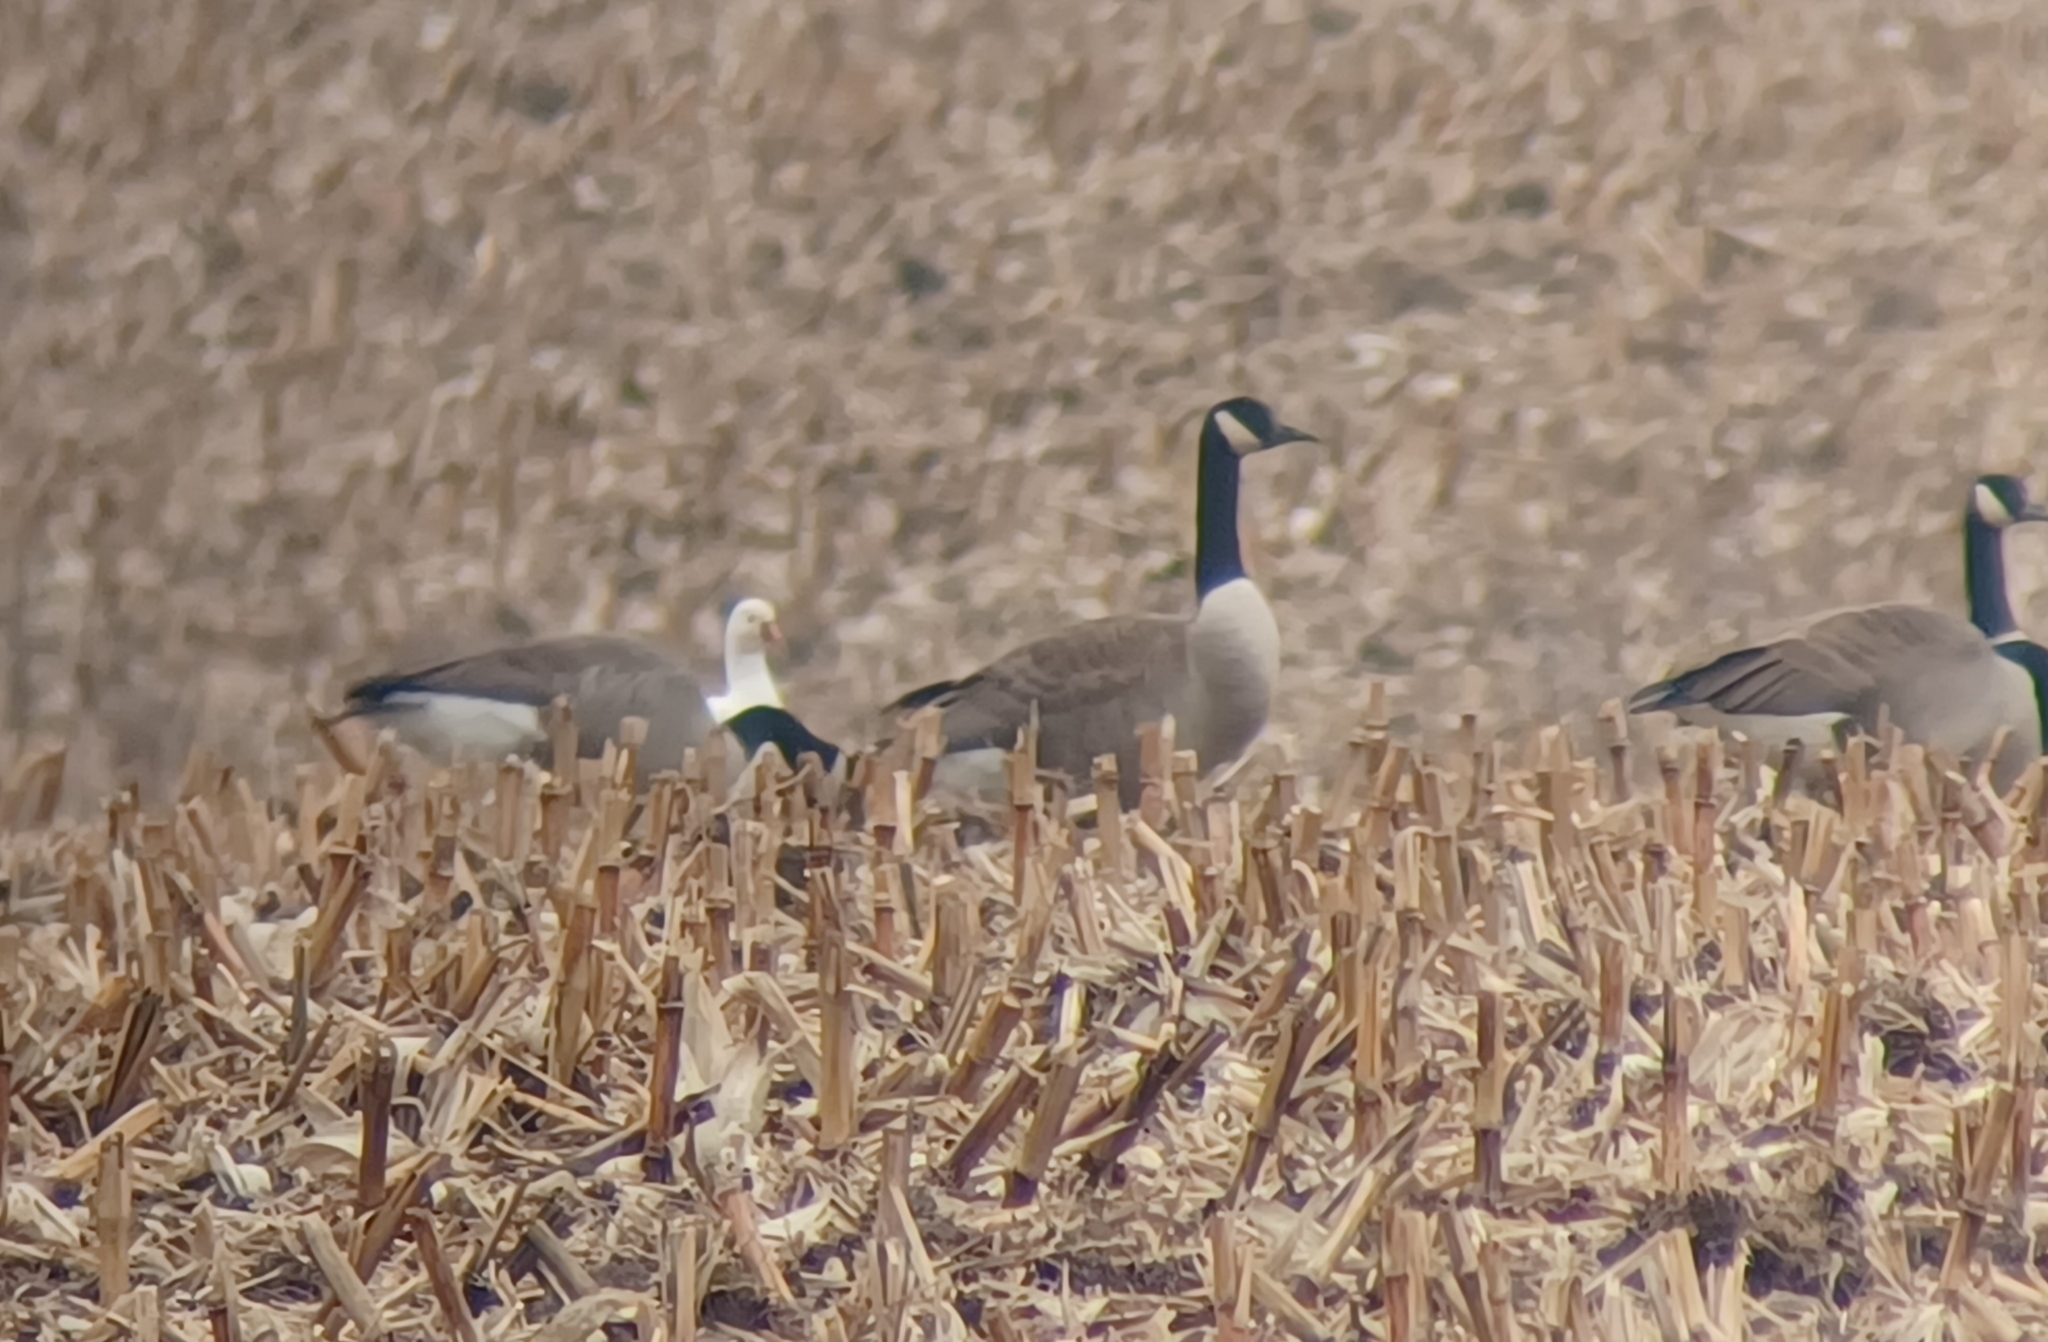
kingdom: Animalia
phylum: Chordata
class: Aves
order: Anseriformes
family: Anatidae
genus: Anser
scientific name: Anser rossii
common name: Ross's goose
